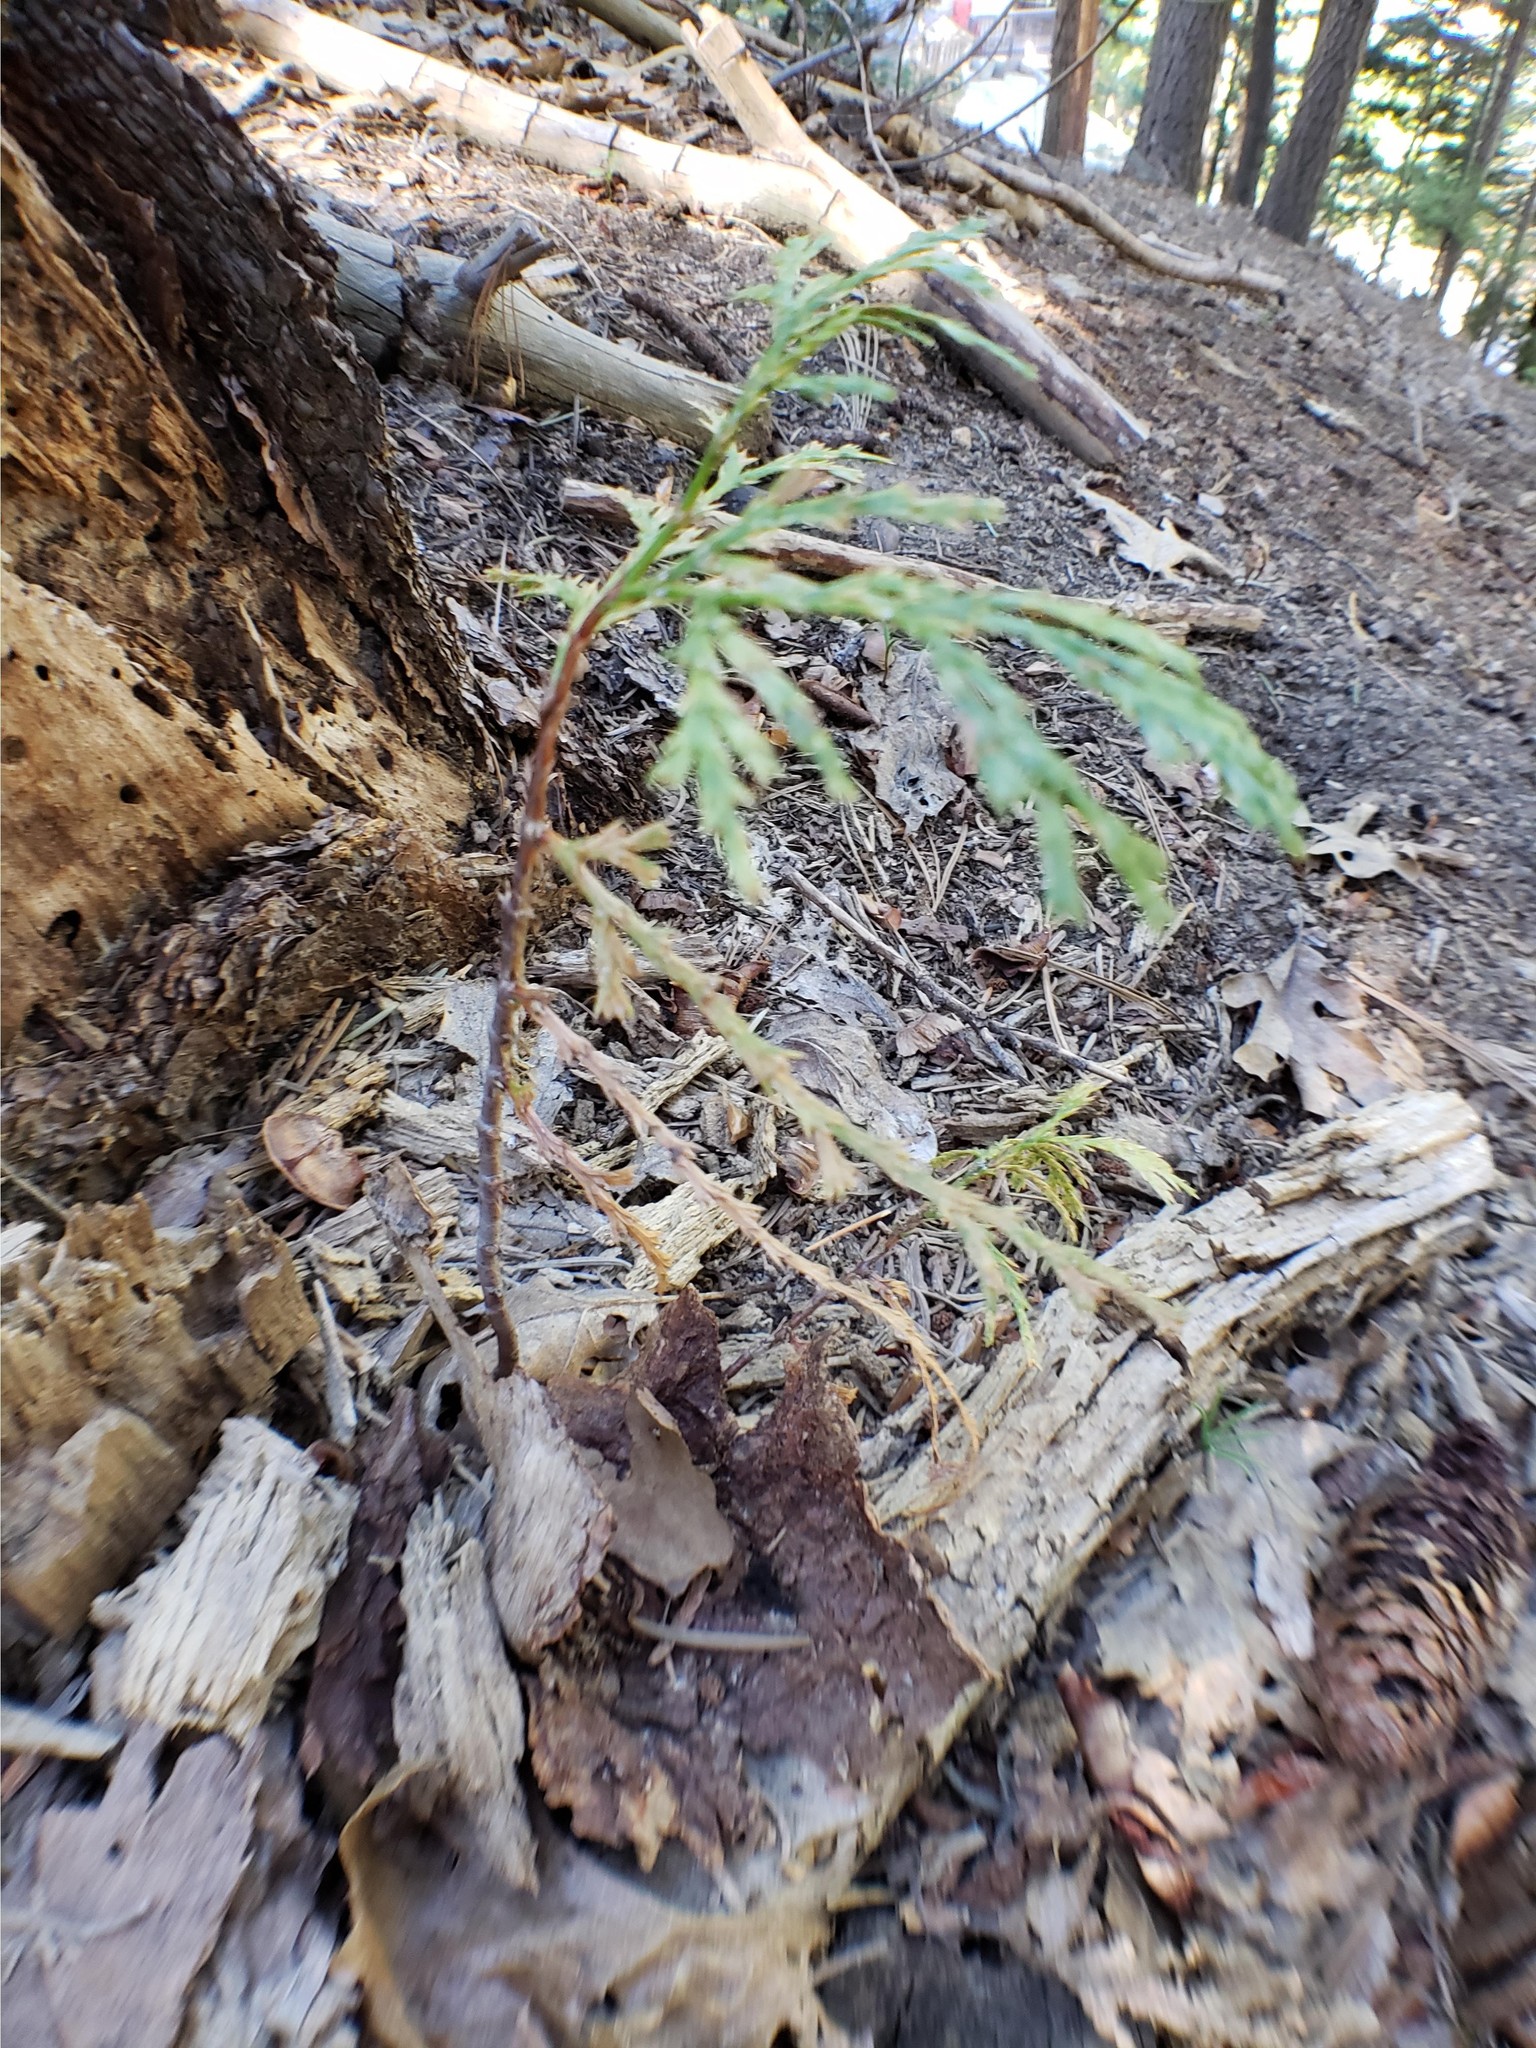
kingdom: Plantae
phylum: Tracheophyta
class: Pinopsida
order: Pinales
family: Cupressaceae
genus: Calocedrus
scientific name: Calocedrus decurrens
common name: Californian incense-cedar
